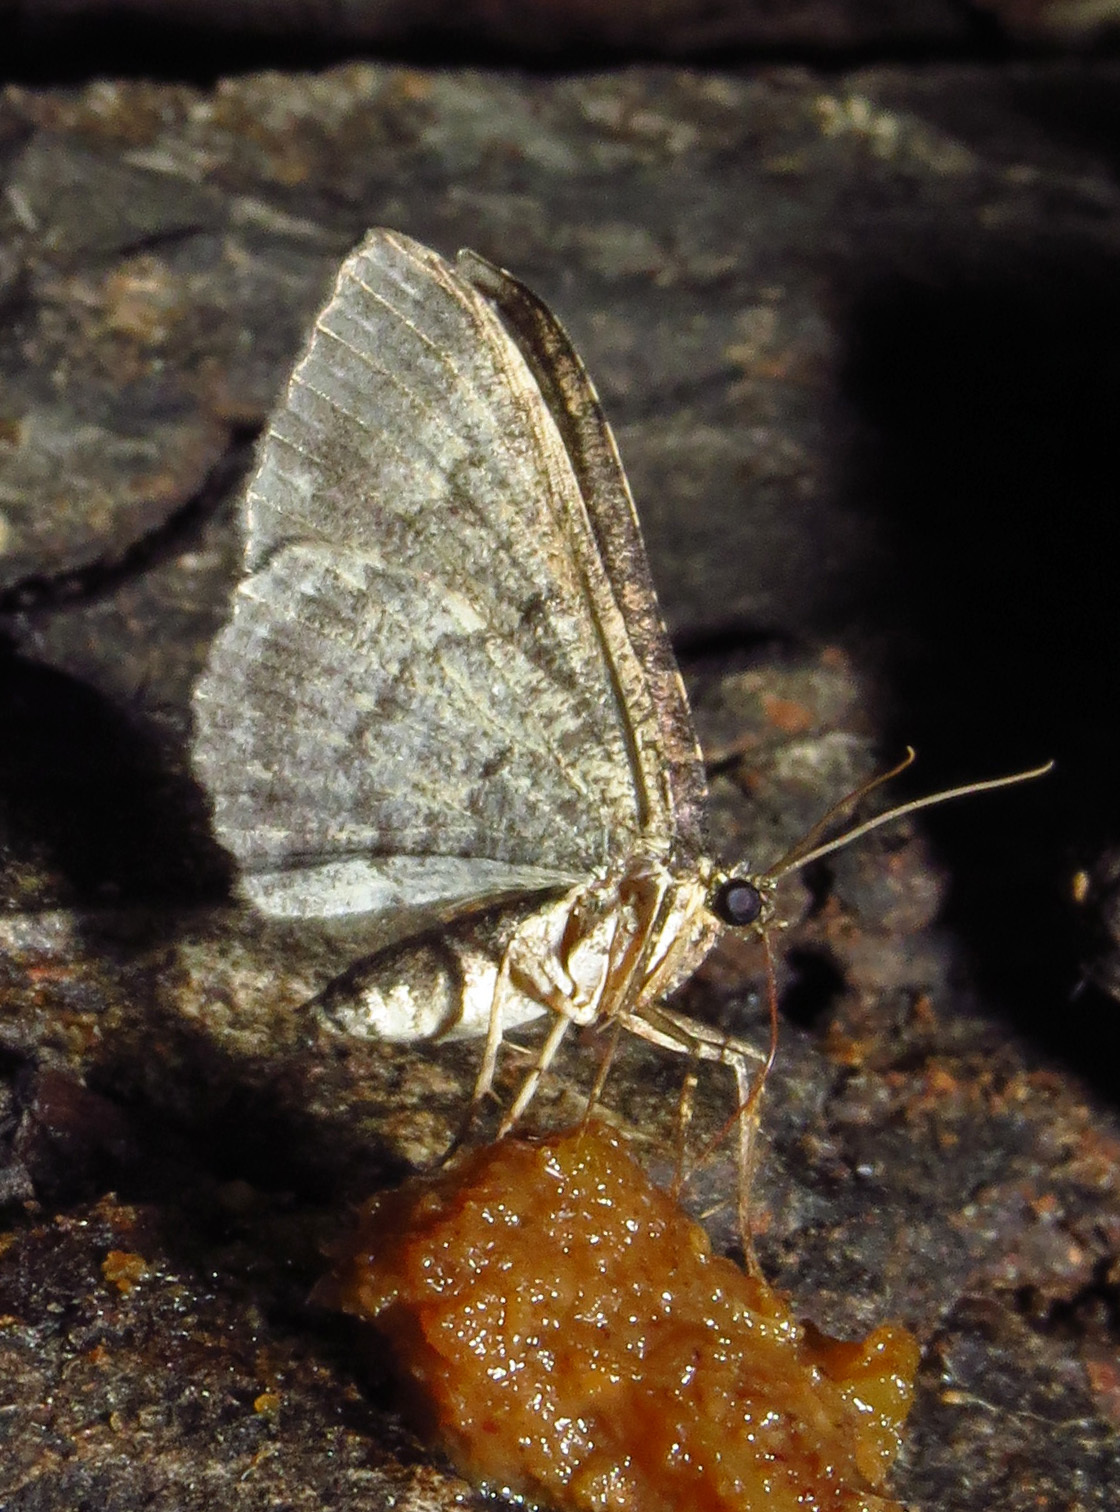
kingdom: Animalia
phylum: Arthropoda
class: Insecta
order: Lepidoptera
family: Geometridae
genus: Disclisioprocta
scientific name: Disclisioprocta stellata
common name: Somber carpet
